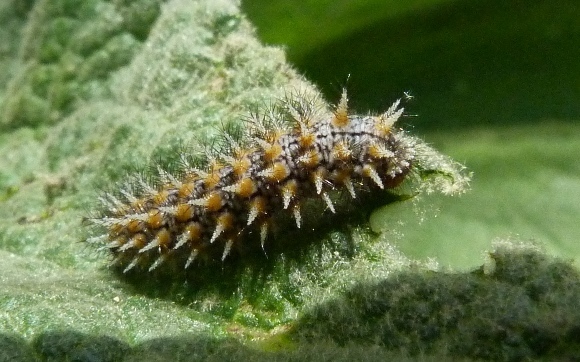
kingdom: Animalia
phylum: Arthropoda
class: Insecta
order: Lepidoptera
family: Nymphalidae
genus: Melitaea
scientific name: Melitaea trivia
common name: Lesser spotted fritillary
